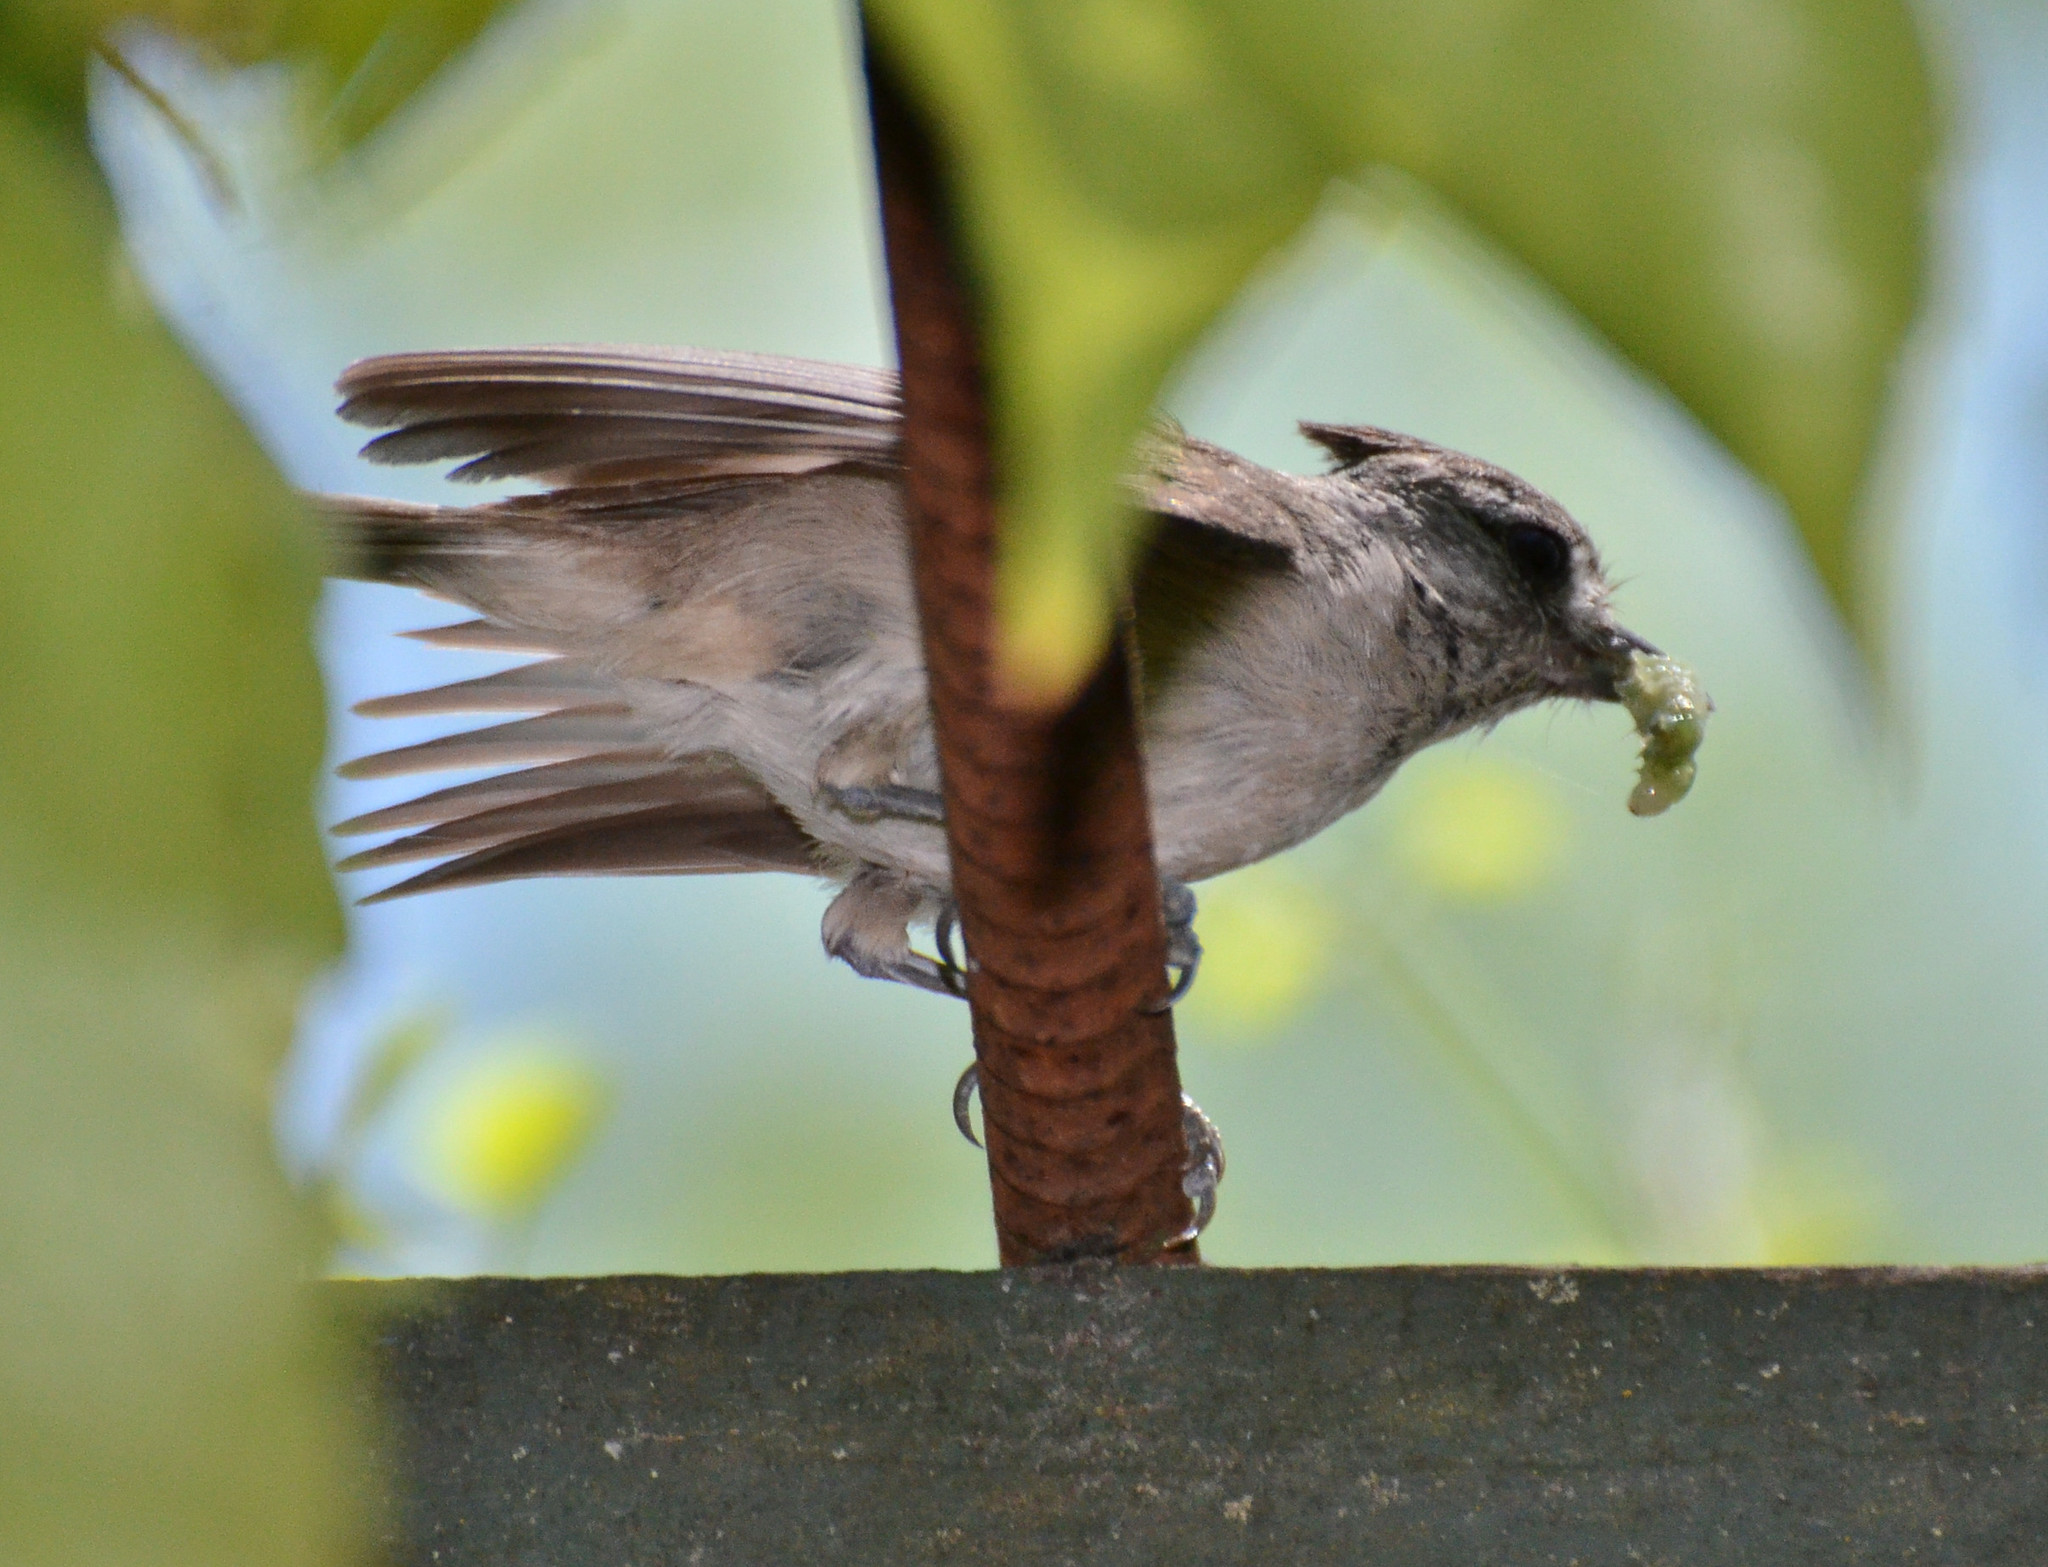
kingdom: Animalia
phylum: Chordata
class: Aves
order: Passeriformes
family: Paridae
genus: Baeolophus
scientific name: Baeolophus inornatus
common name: Oak titmouse
